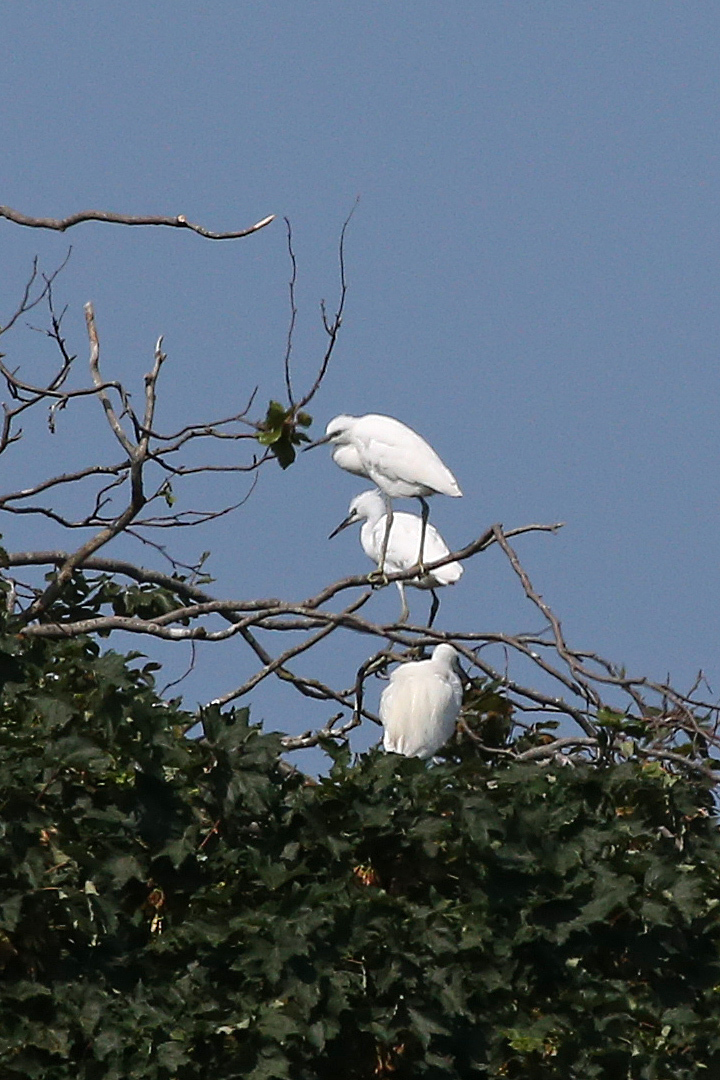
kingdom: Animalia
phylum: Chordata
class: Aves
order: Pelecaniformes
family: Ardeidae
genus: Egretta
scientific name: Egretta garzetta
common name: Little egret
